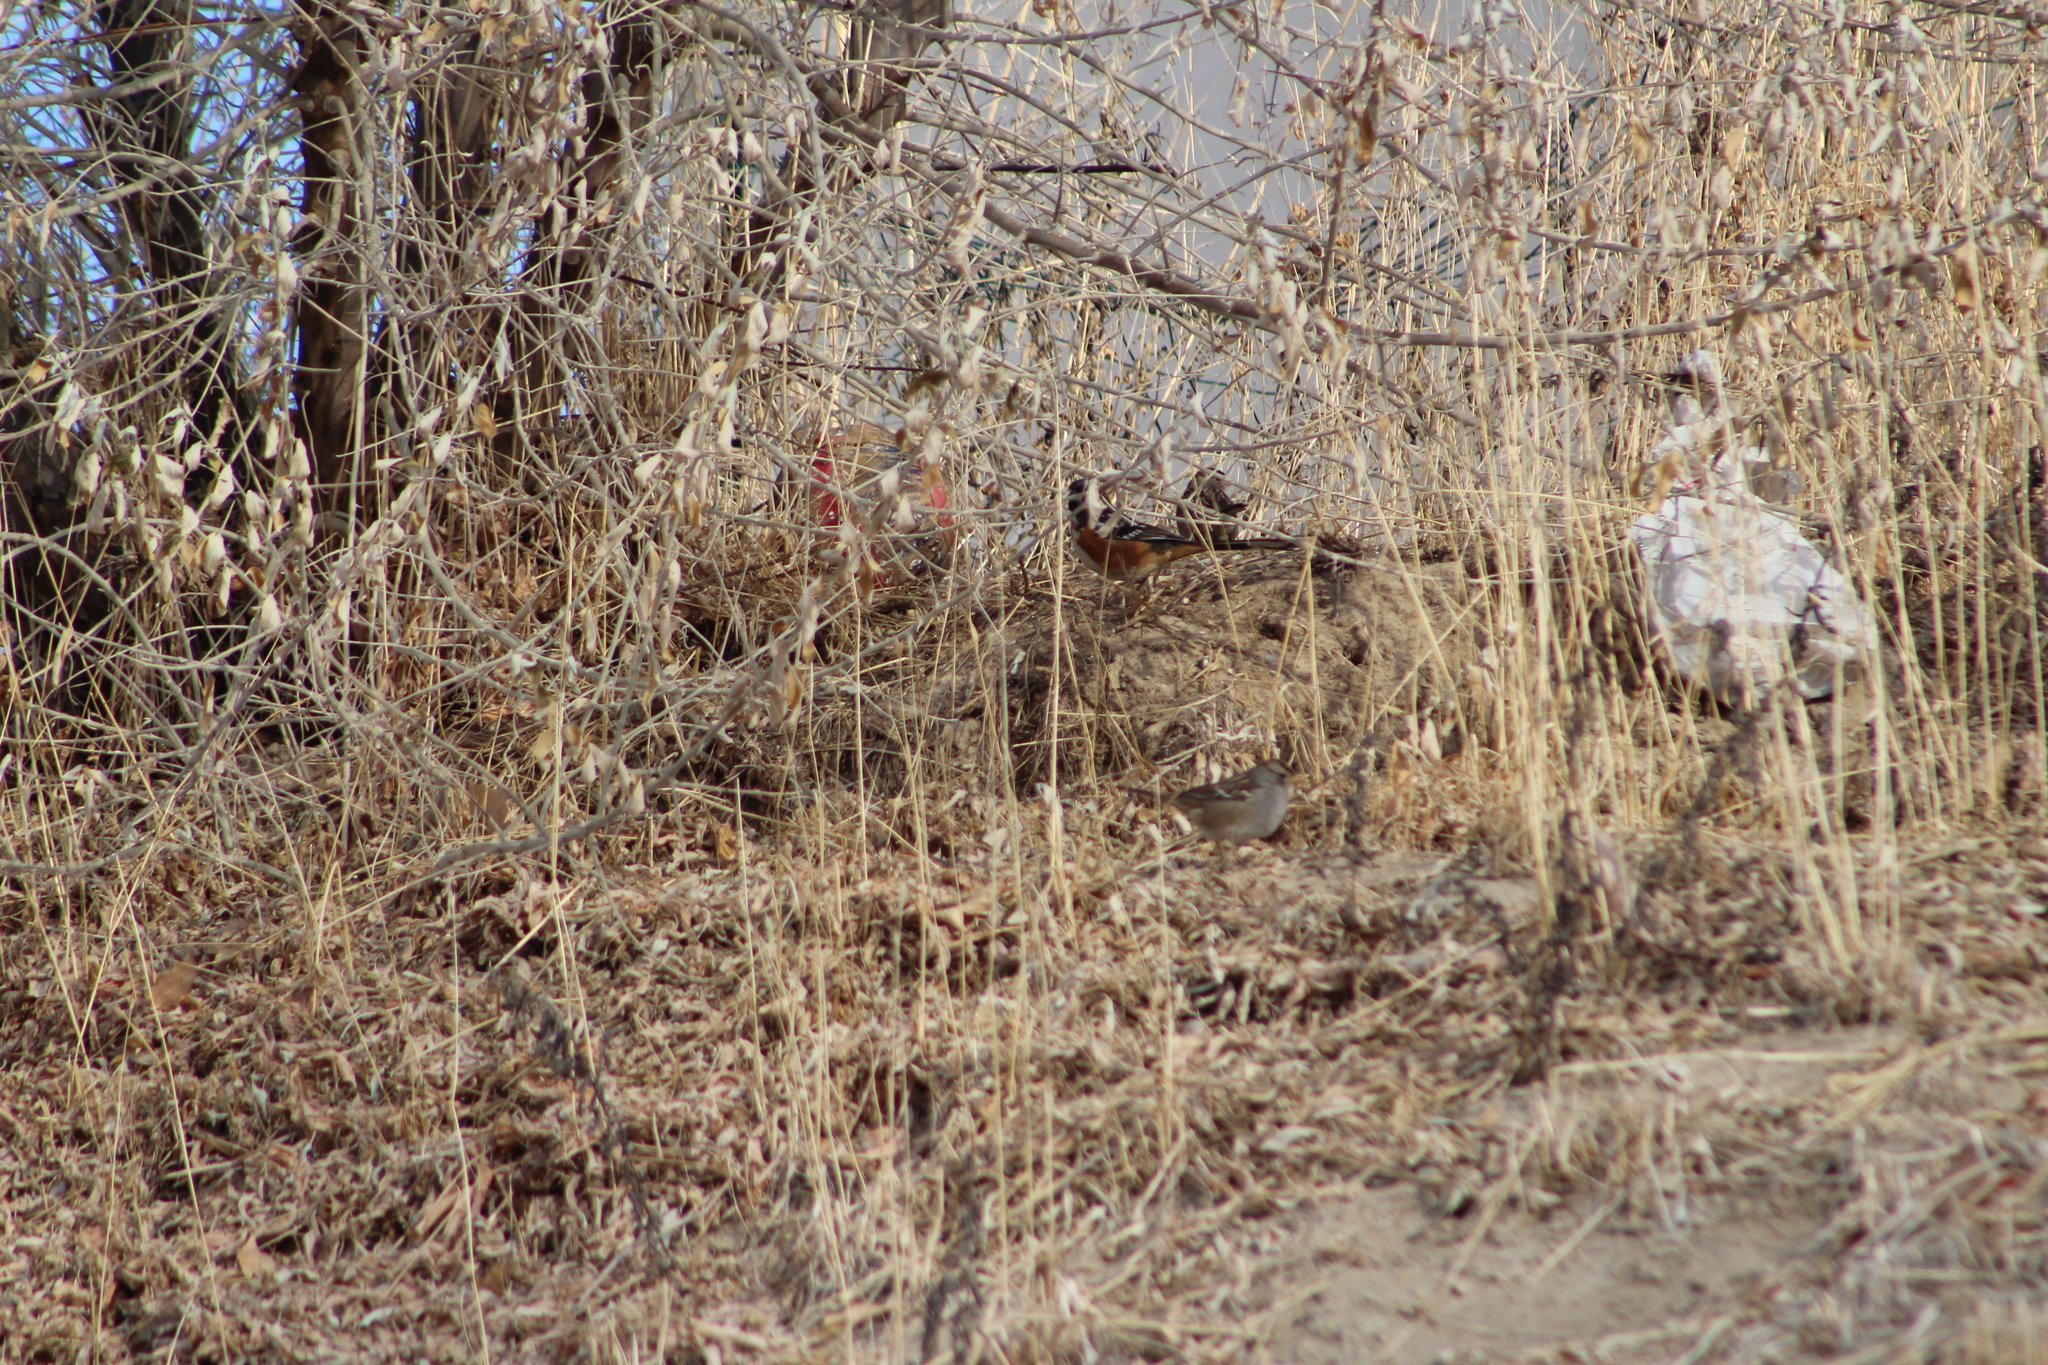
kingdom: Animalia
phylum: Chordata
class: Aves
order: Passeriformes
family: Passerellidae
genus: Pipilo
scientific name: Pipilo maculatus
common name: Spotted towhee
